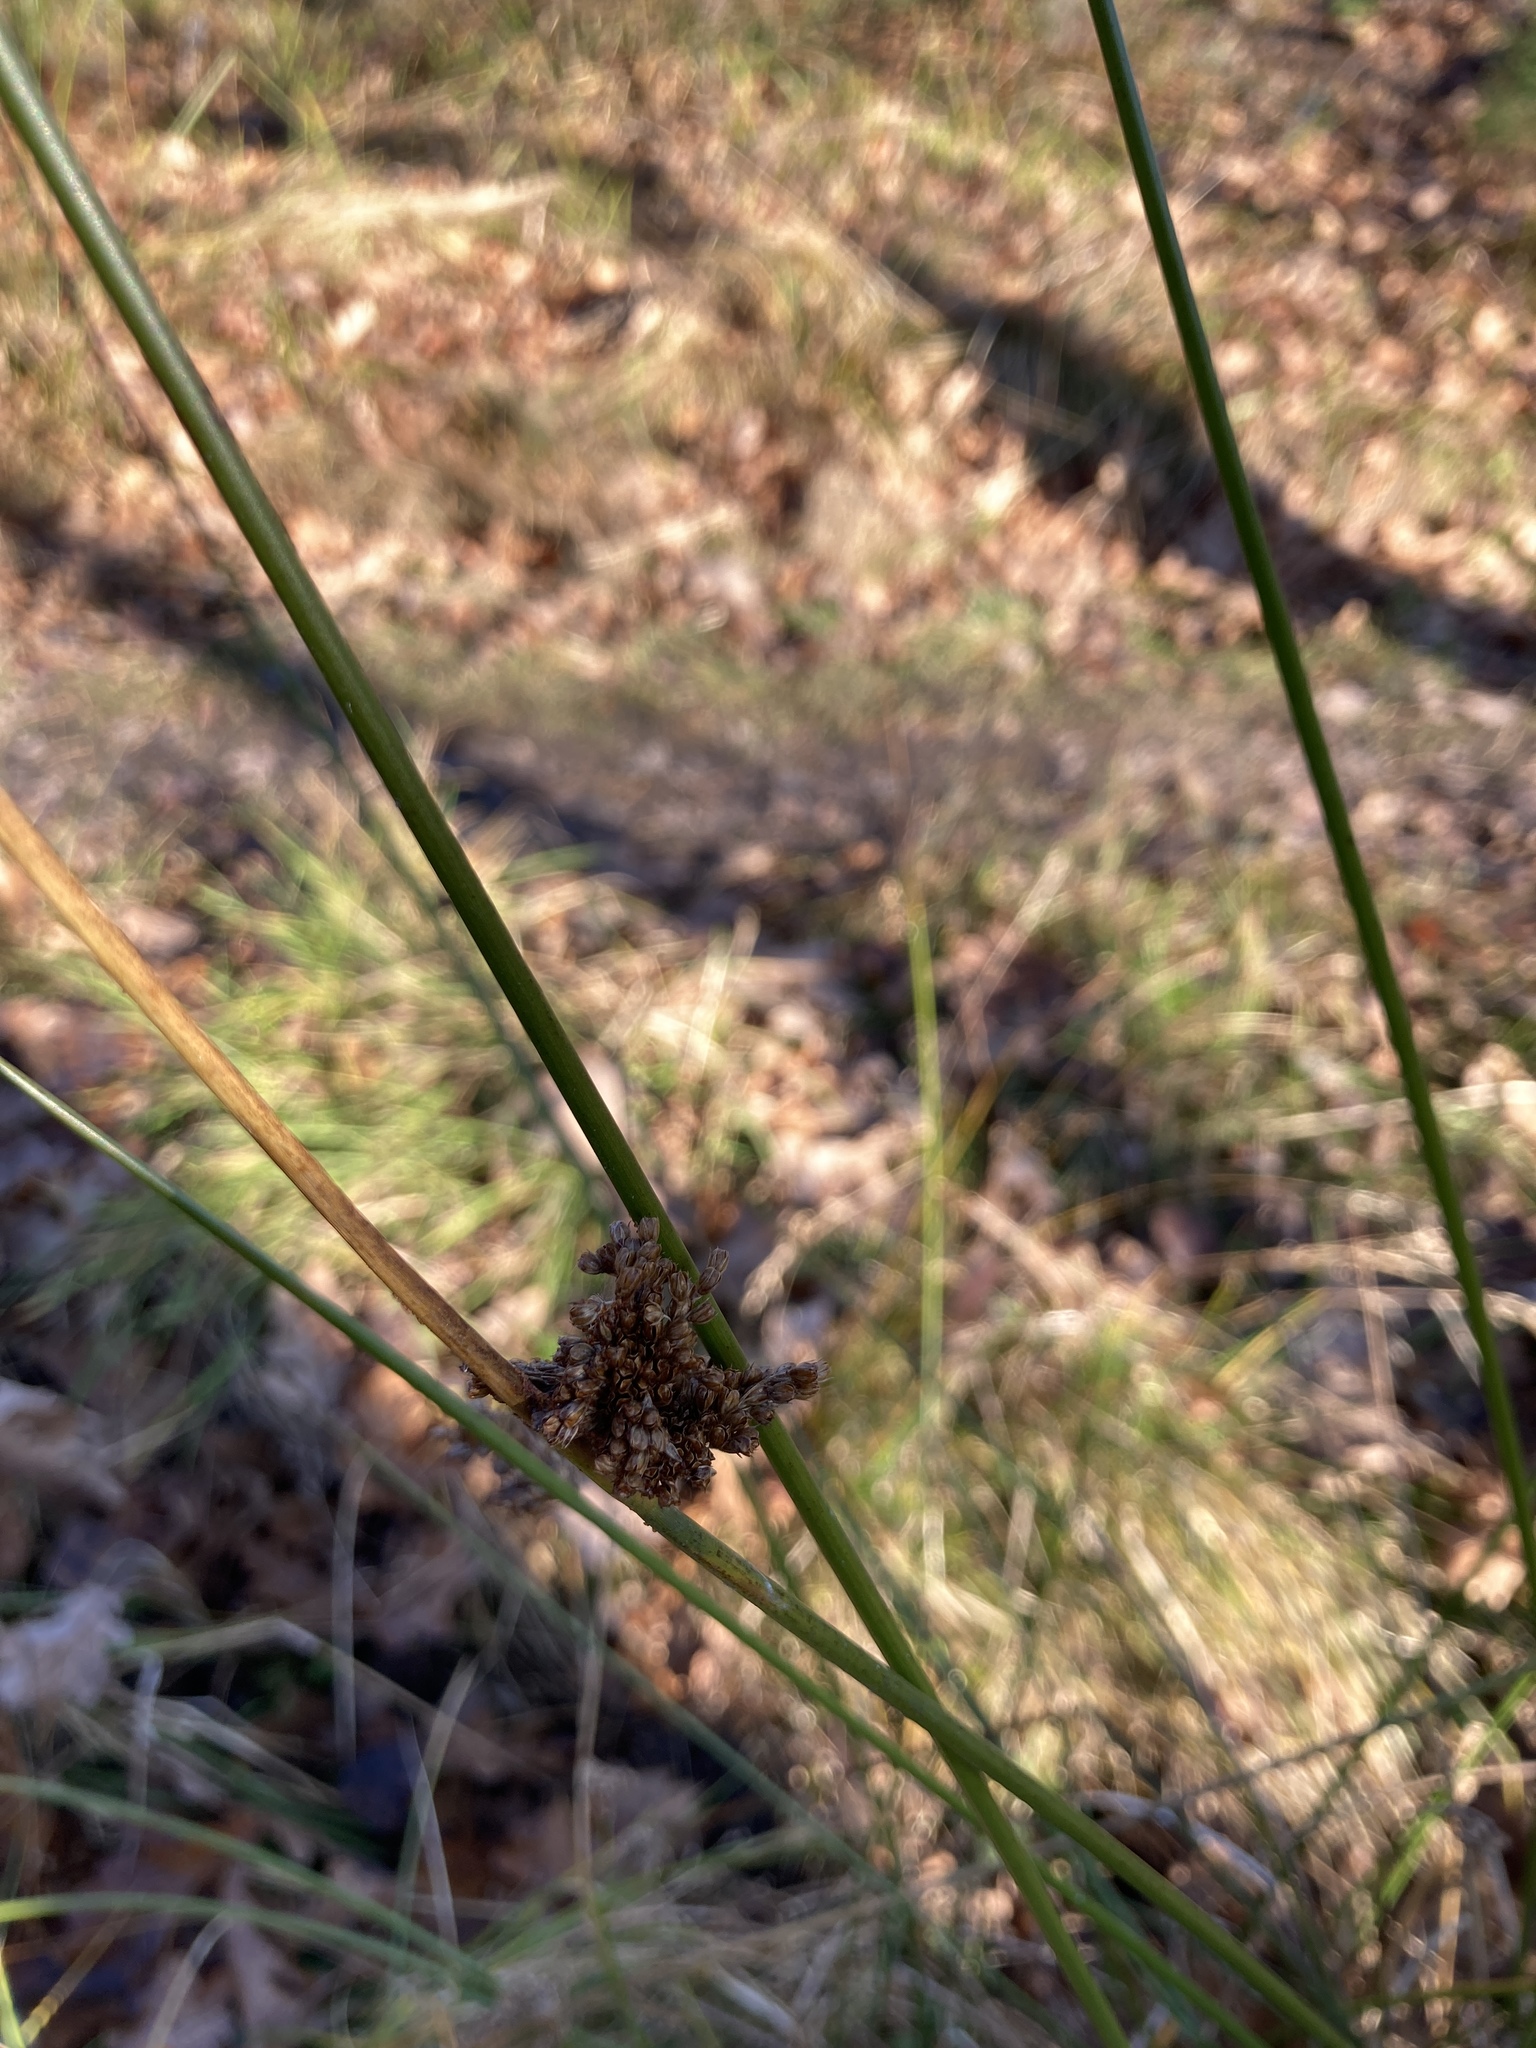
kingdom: Plantae
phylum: Tracheophyta
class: Liliopsida
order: Poales
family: Juncaceae
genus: Juncus
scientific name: Juncus effusus
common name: Soft rush
